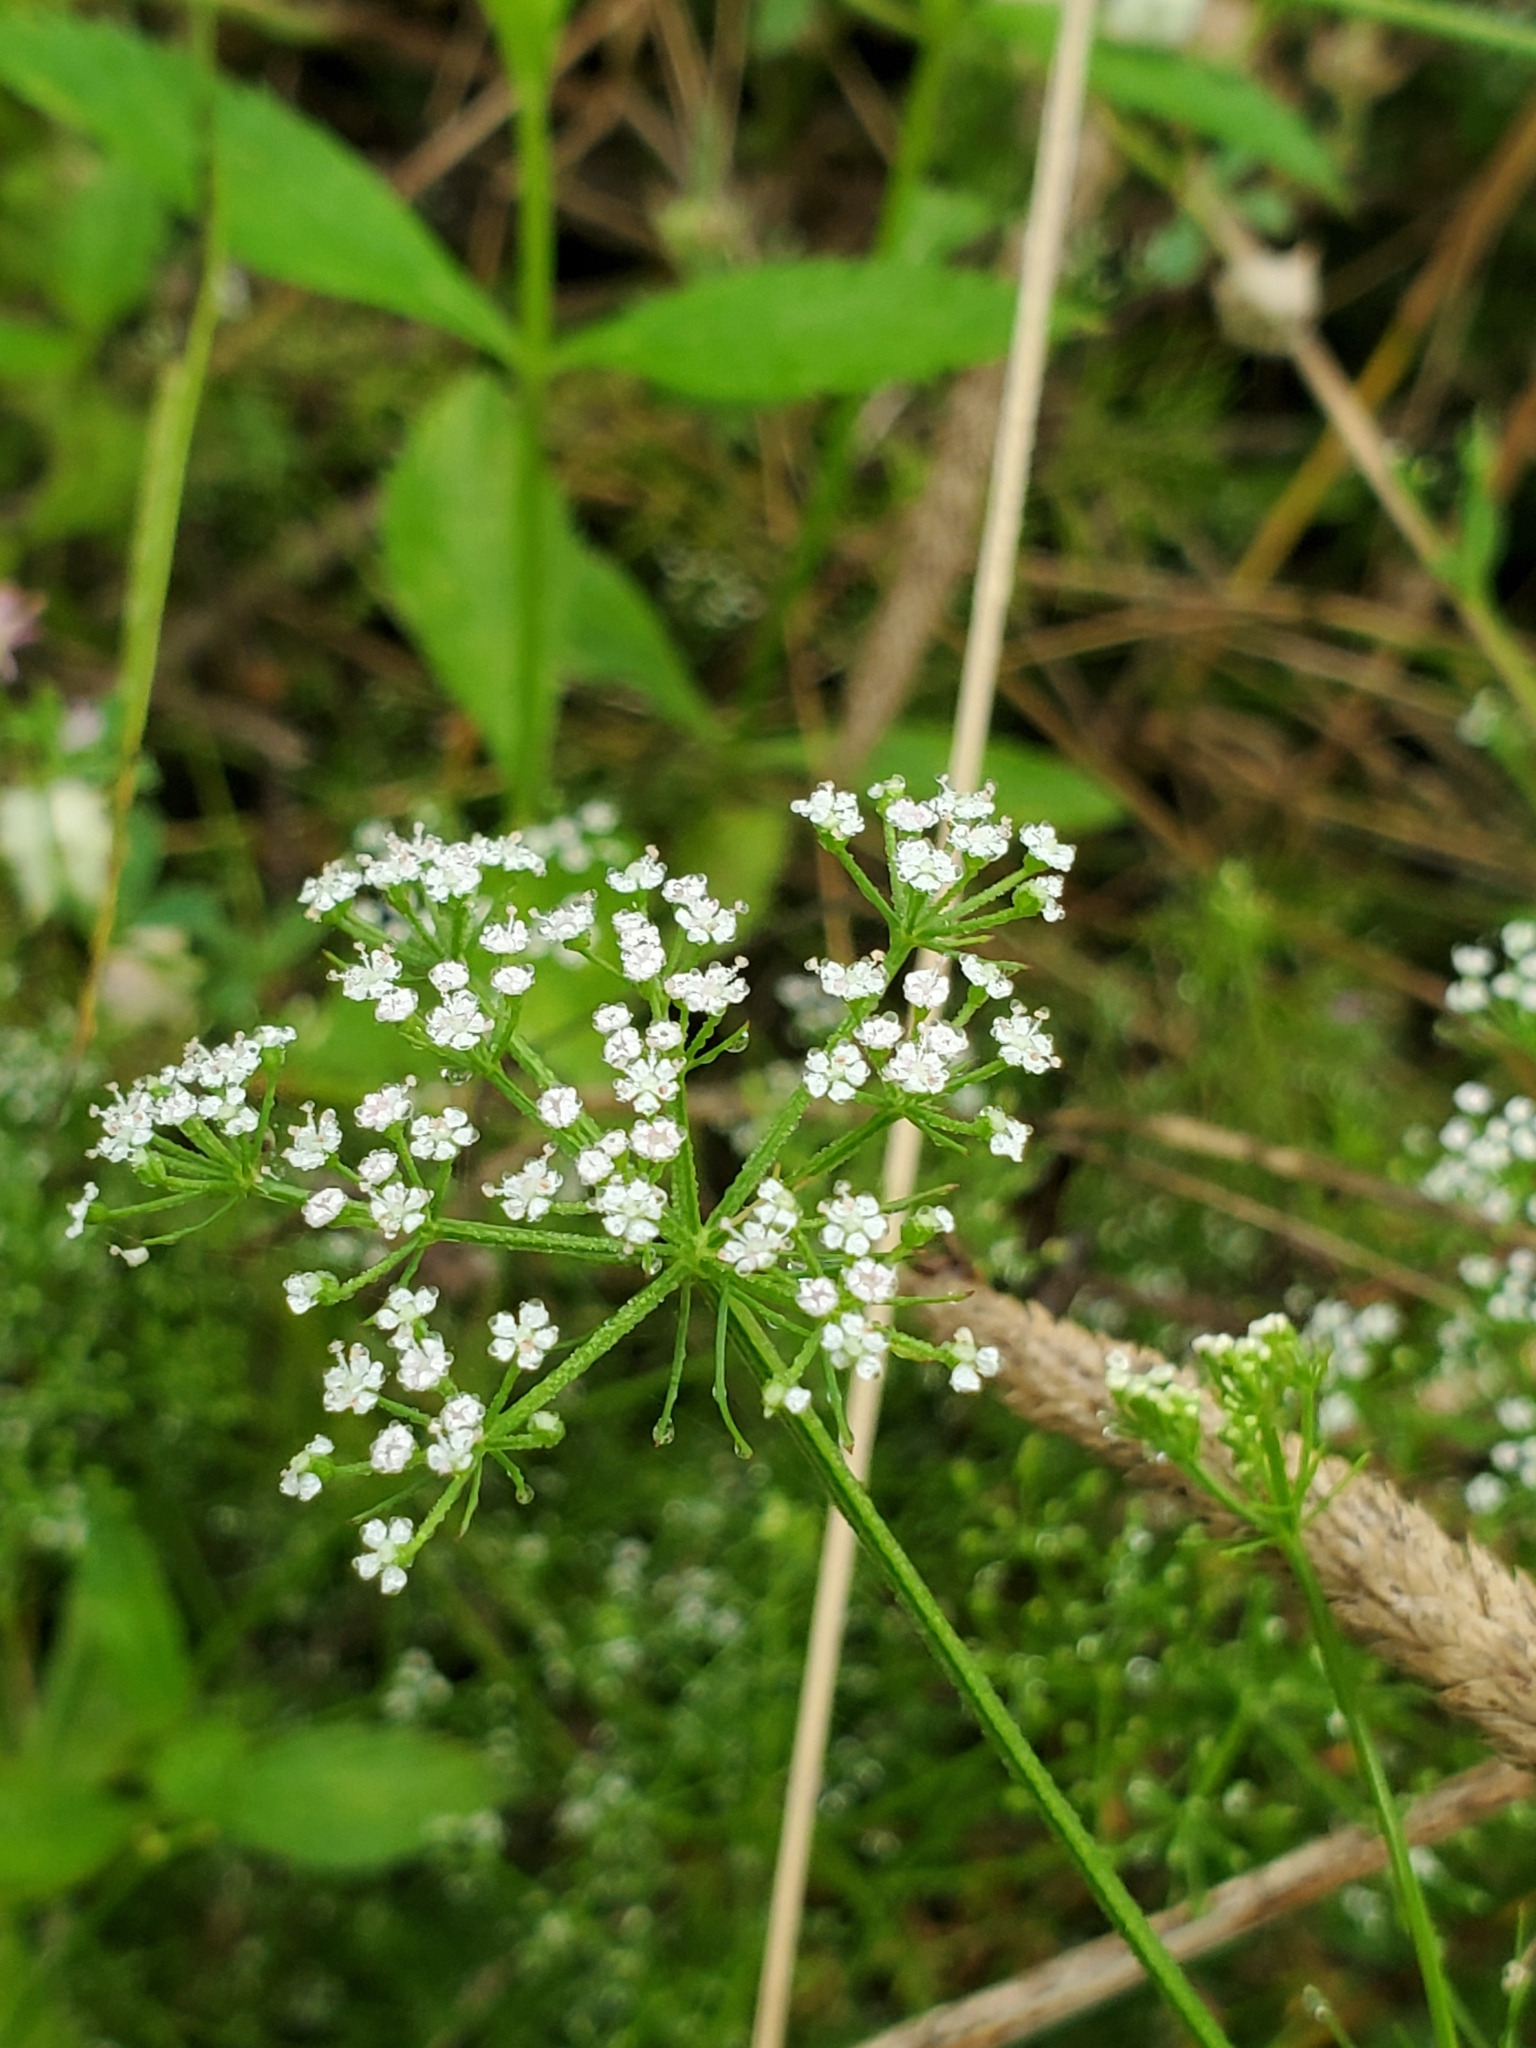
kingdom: Plantae
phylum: Tracheophyta
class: Magnoliopsida
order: Apiales
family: Apiaceae
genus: Ptilimnium
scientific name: Ptilimnium capillaceum
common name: Herbwilliam
